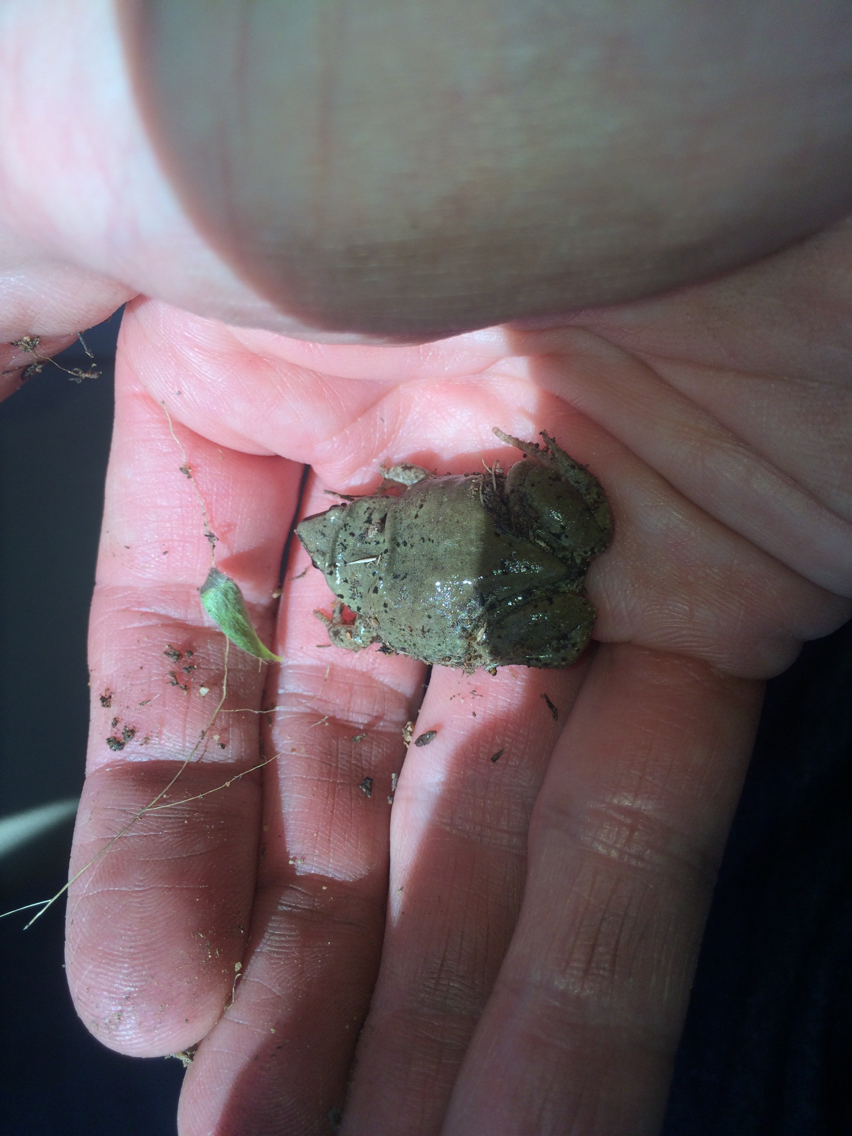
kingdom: Animalia
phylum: Chordata
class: Amphibia
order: Anura
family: Microhylidae
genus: Gastrophryne
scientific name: Gastrophryne olivacea
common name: Great plains narrow-mouthed toad
